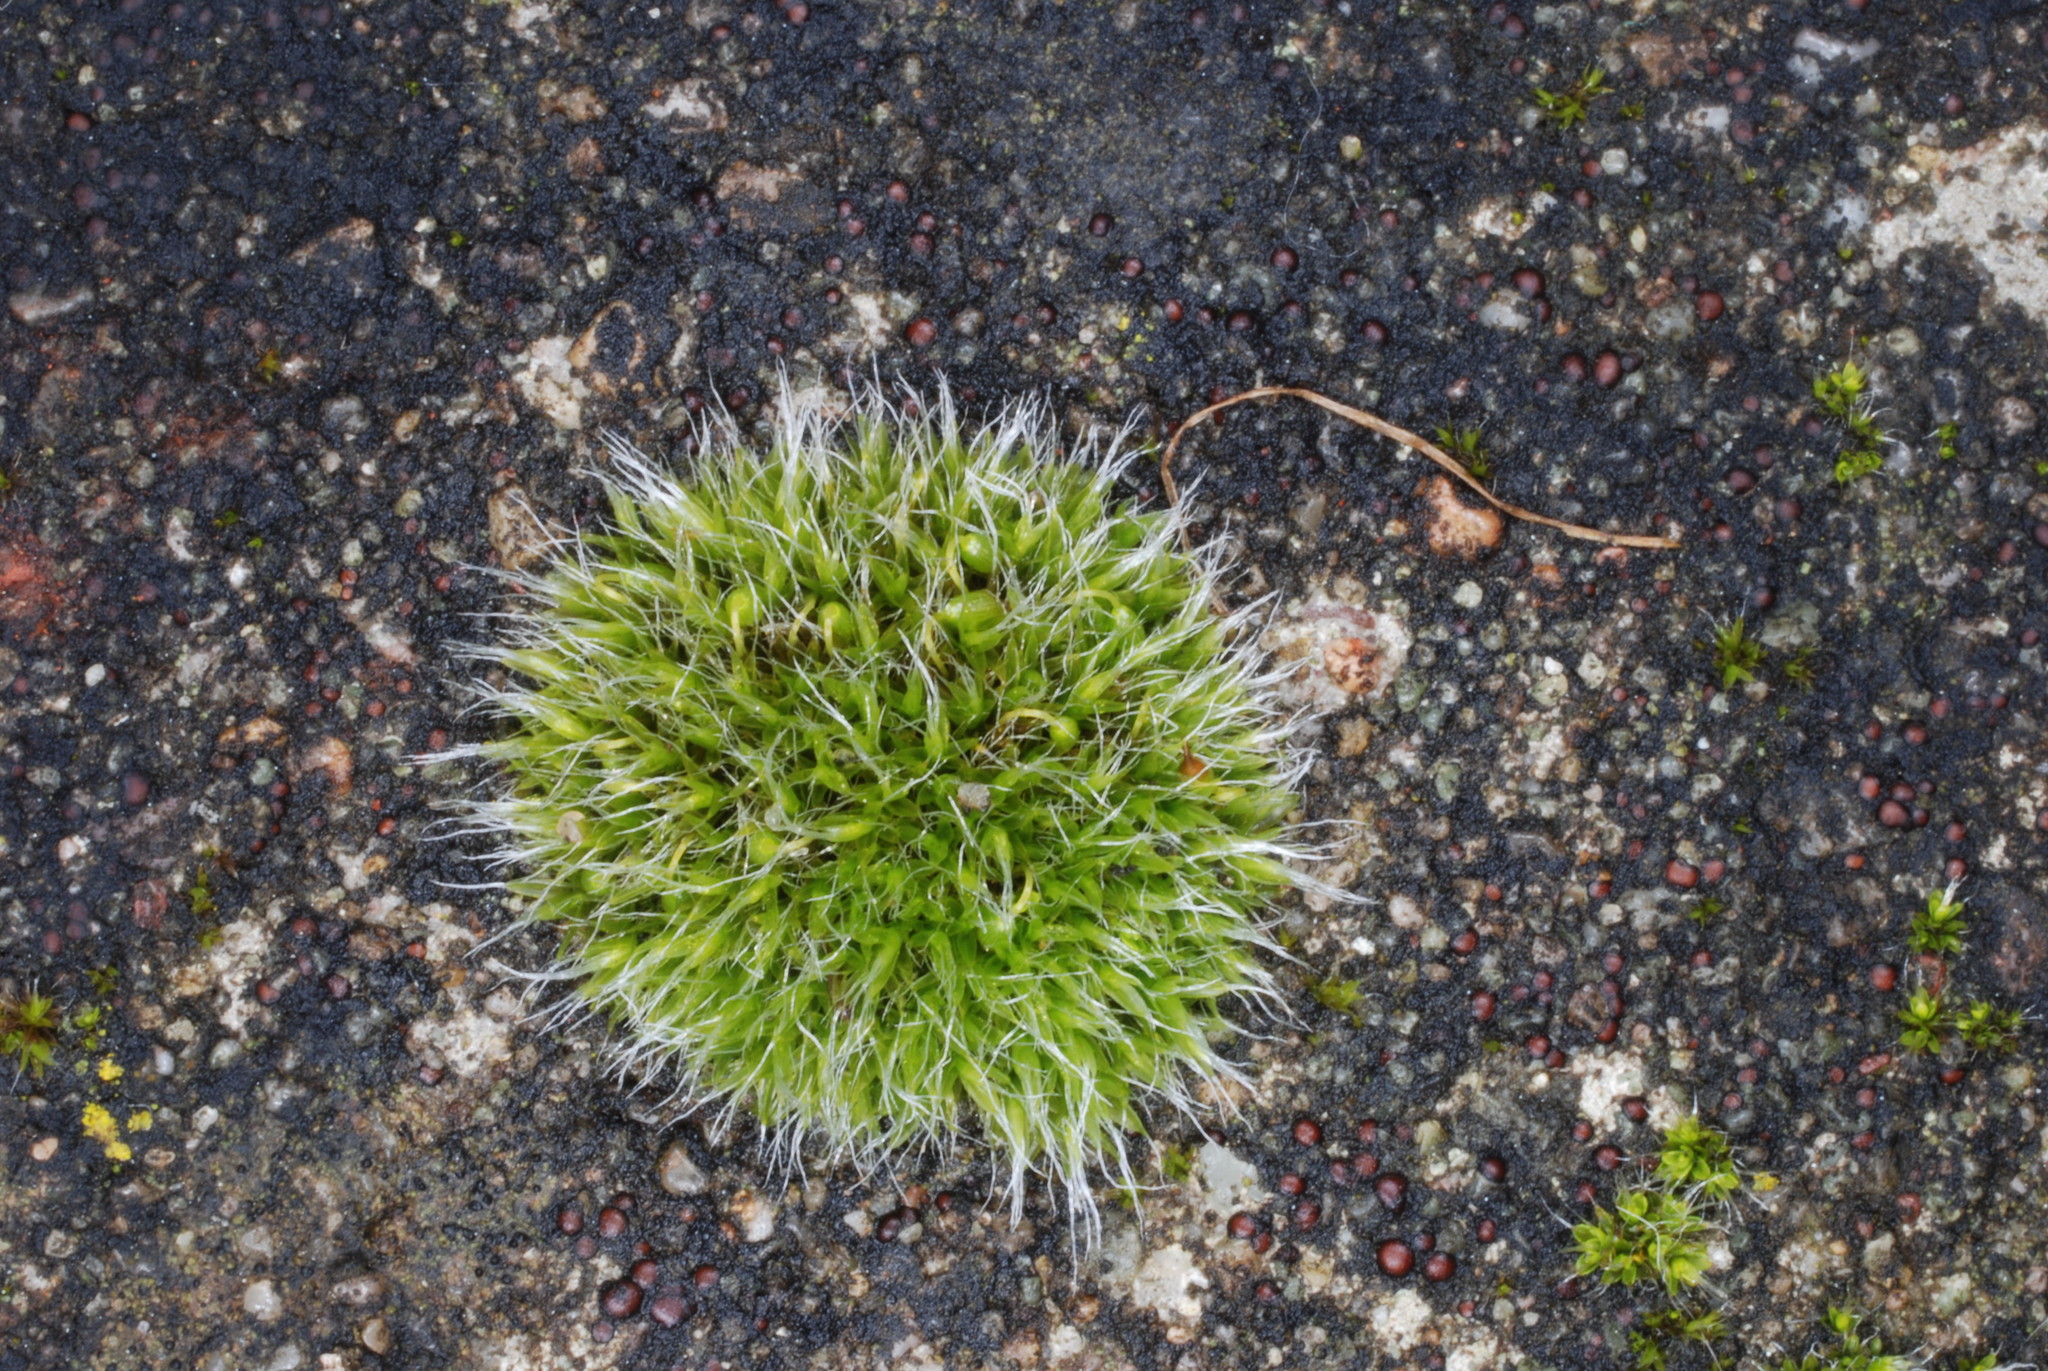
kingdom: Plantae
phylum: Bryophyta
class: Bryopsida
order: Grimmiales
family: Grimmiaceae
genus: Grimmia
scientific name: Grimmia pulvinata
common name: Grey-cushioned grimmia
